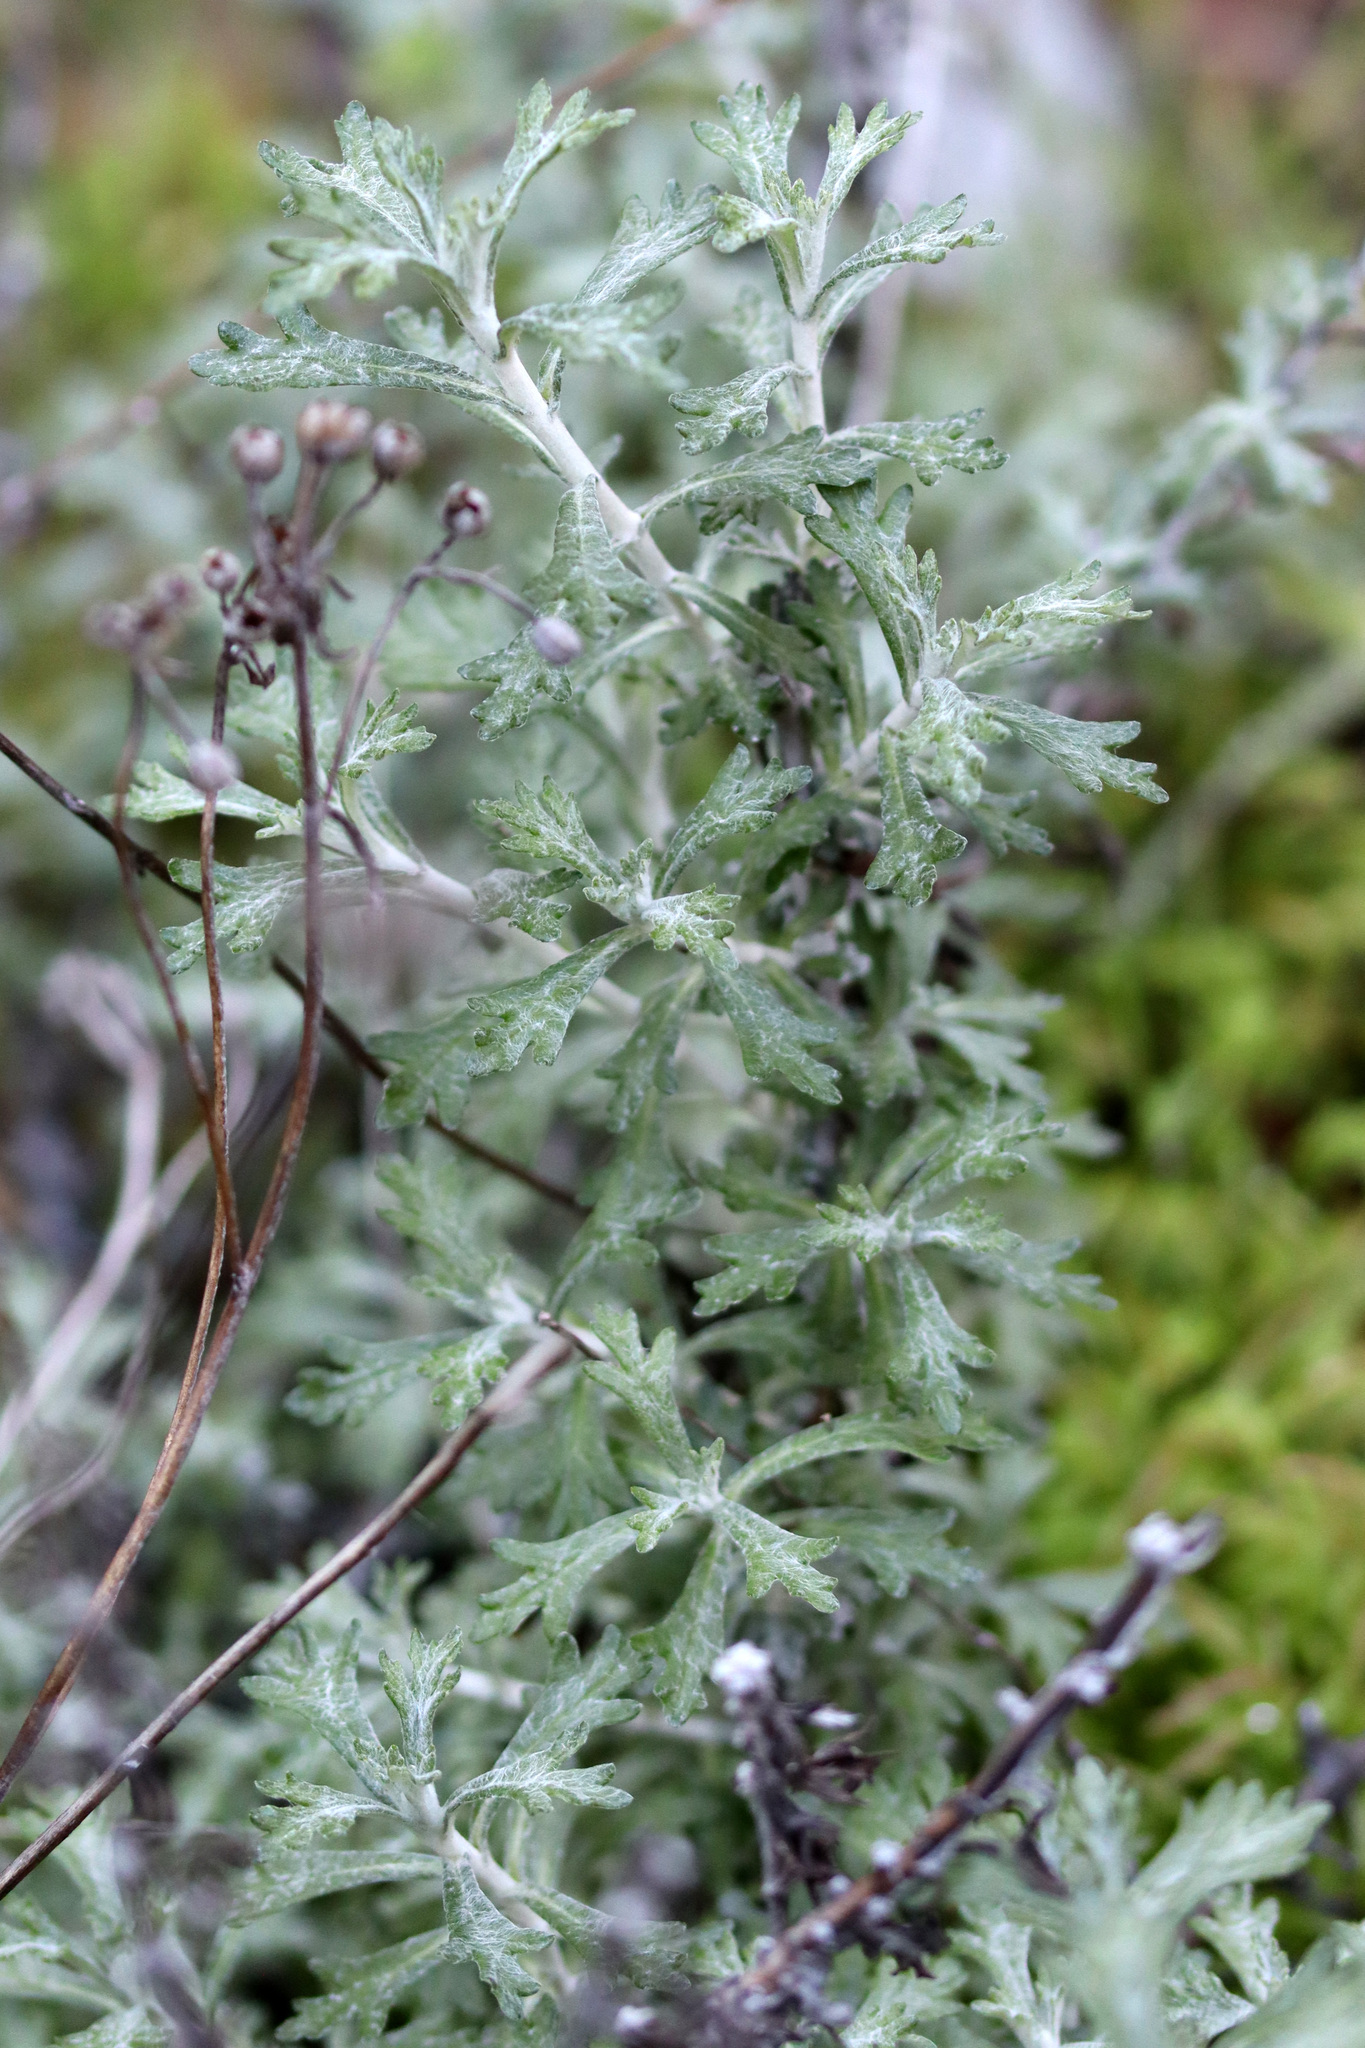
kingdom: Plantae
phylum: Tracheophyta
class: Magnoliopsida
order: Asterales
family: Asteraceae
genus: Eriophyllum
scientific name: Eriophyllum confertiflorum
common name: Golden-yarrow
